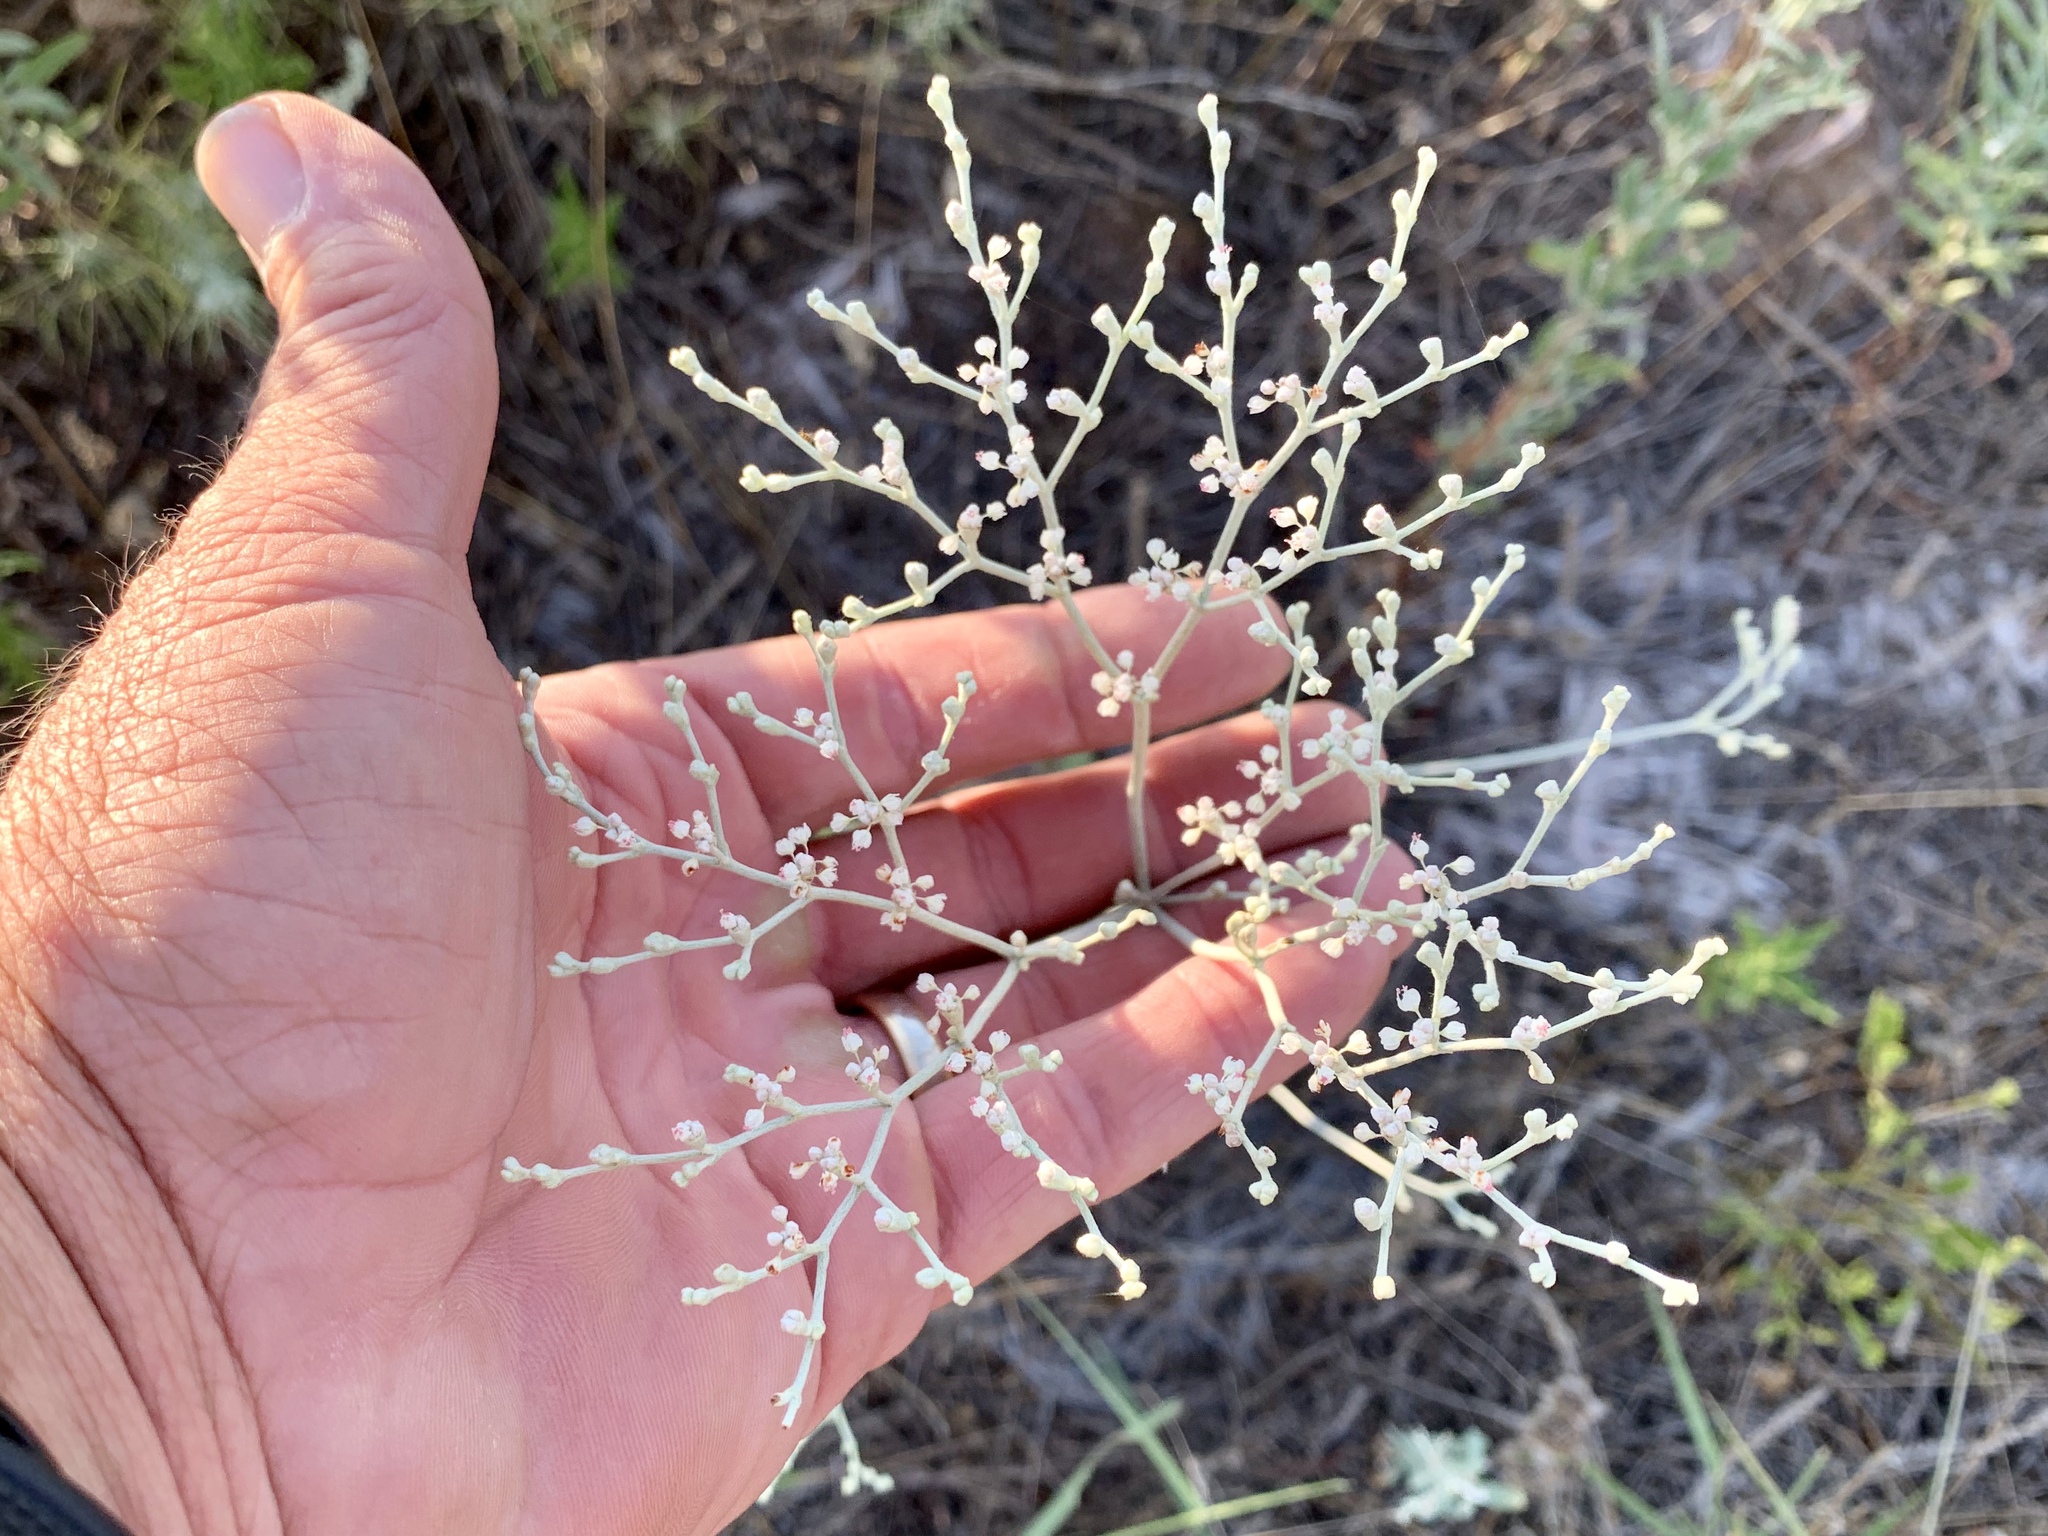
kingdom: Plantae
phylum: Tracheophyta
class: Magnoliopsida
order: Caryophyllales
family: Polygonaceae
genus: Eriogonum
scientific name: Eriogonum annuum
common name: Annual wild buckwheat
